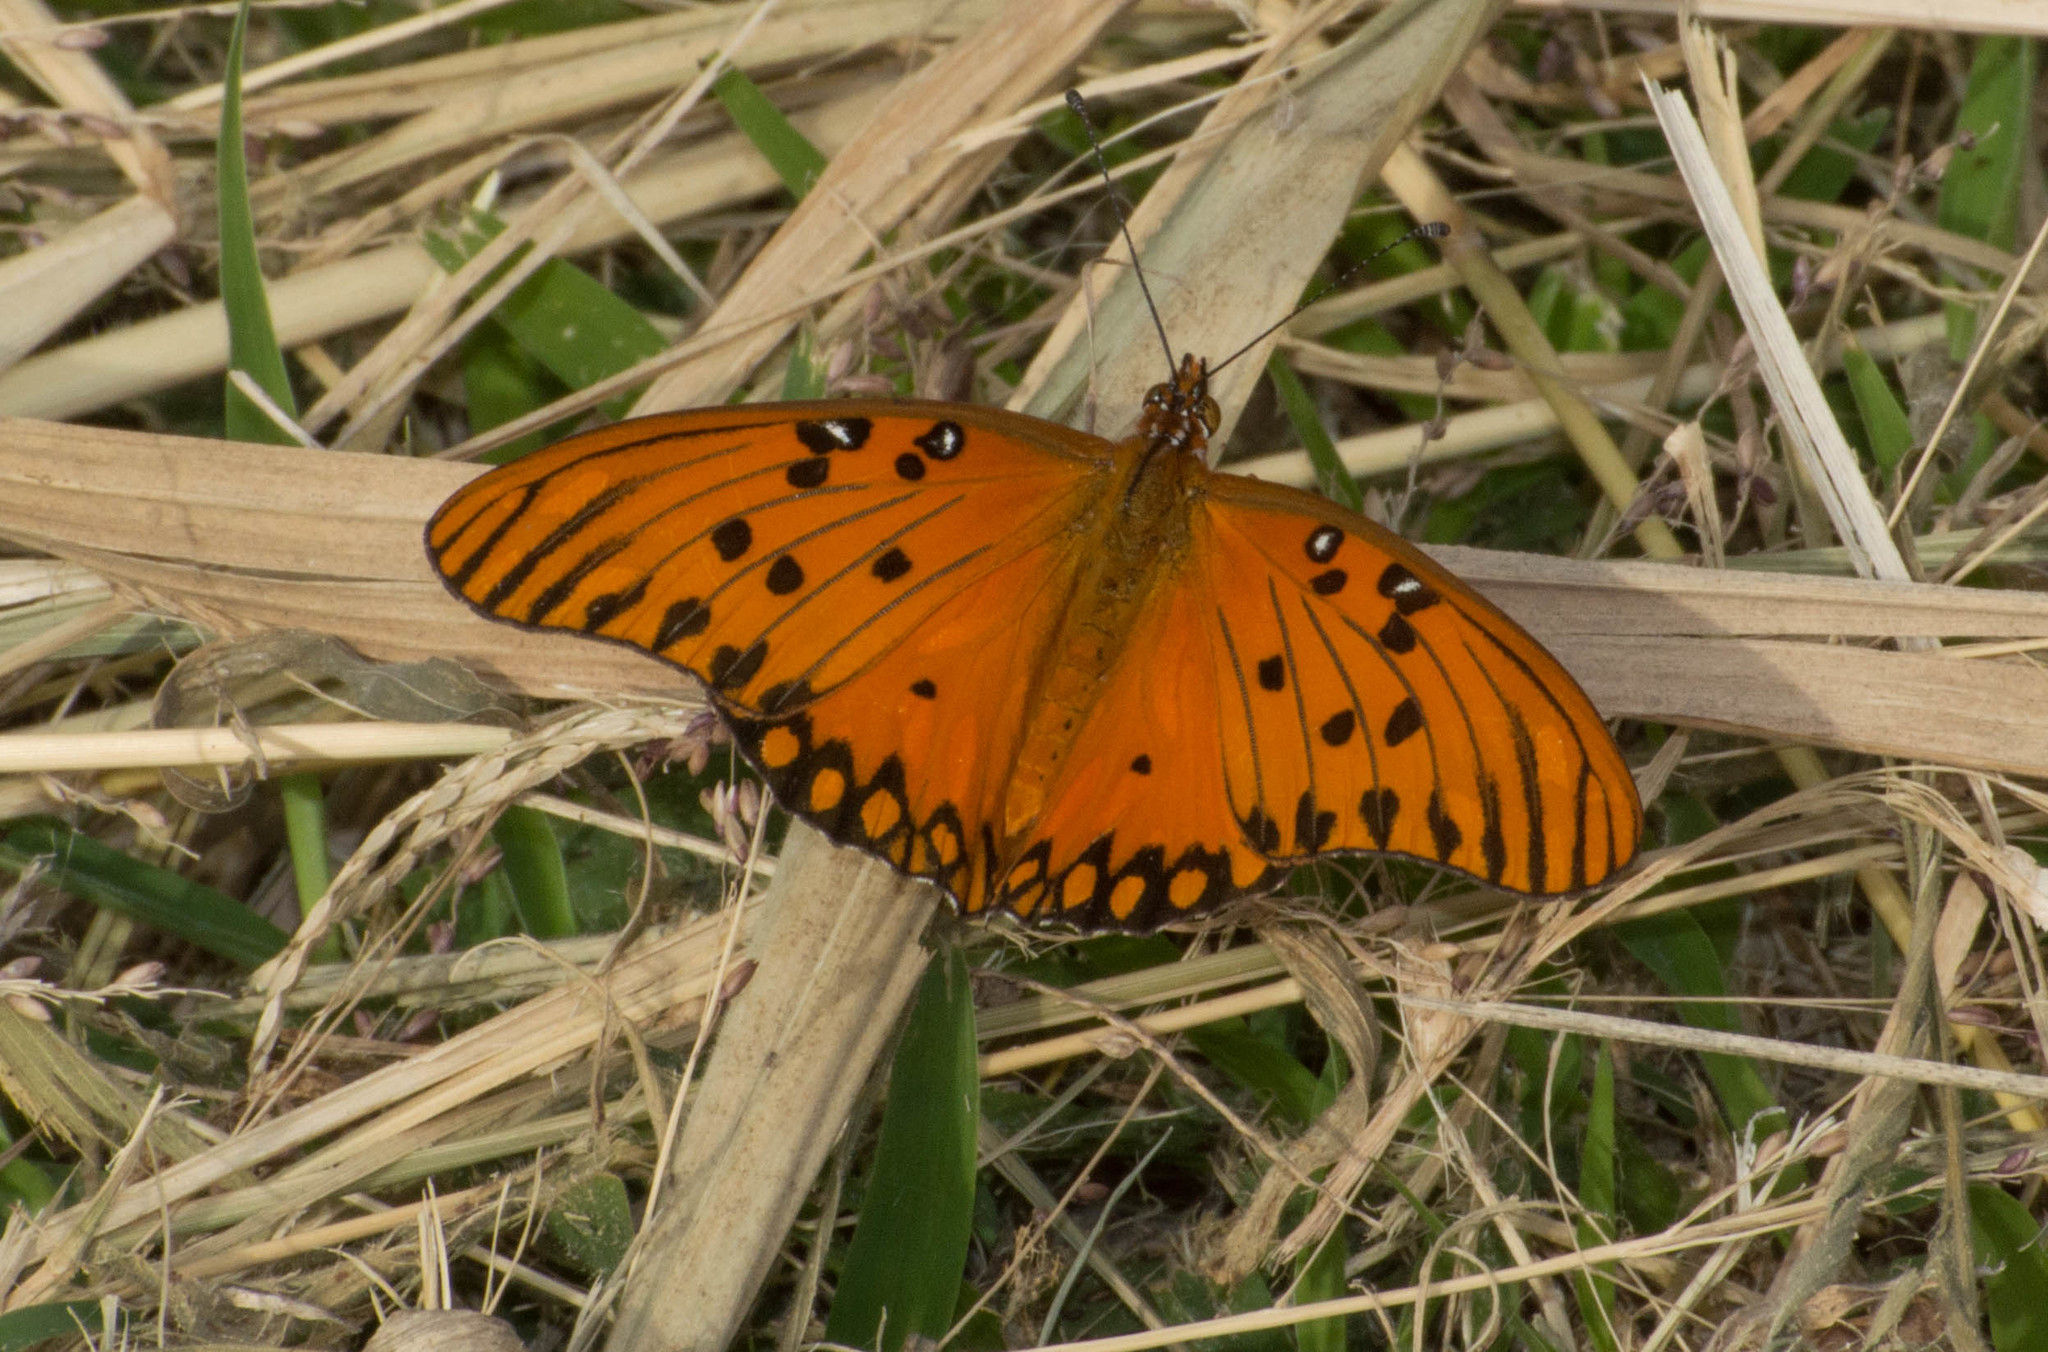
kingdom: Animalia
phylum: Arthropoda
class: Insecta
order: Lepidoptera
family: Nymphalidae
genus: Dione
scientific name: Dione vanillae
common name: Gulf fritillary
